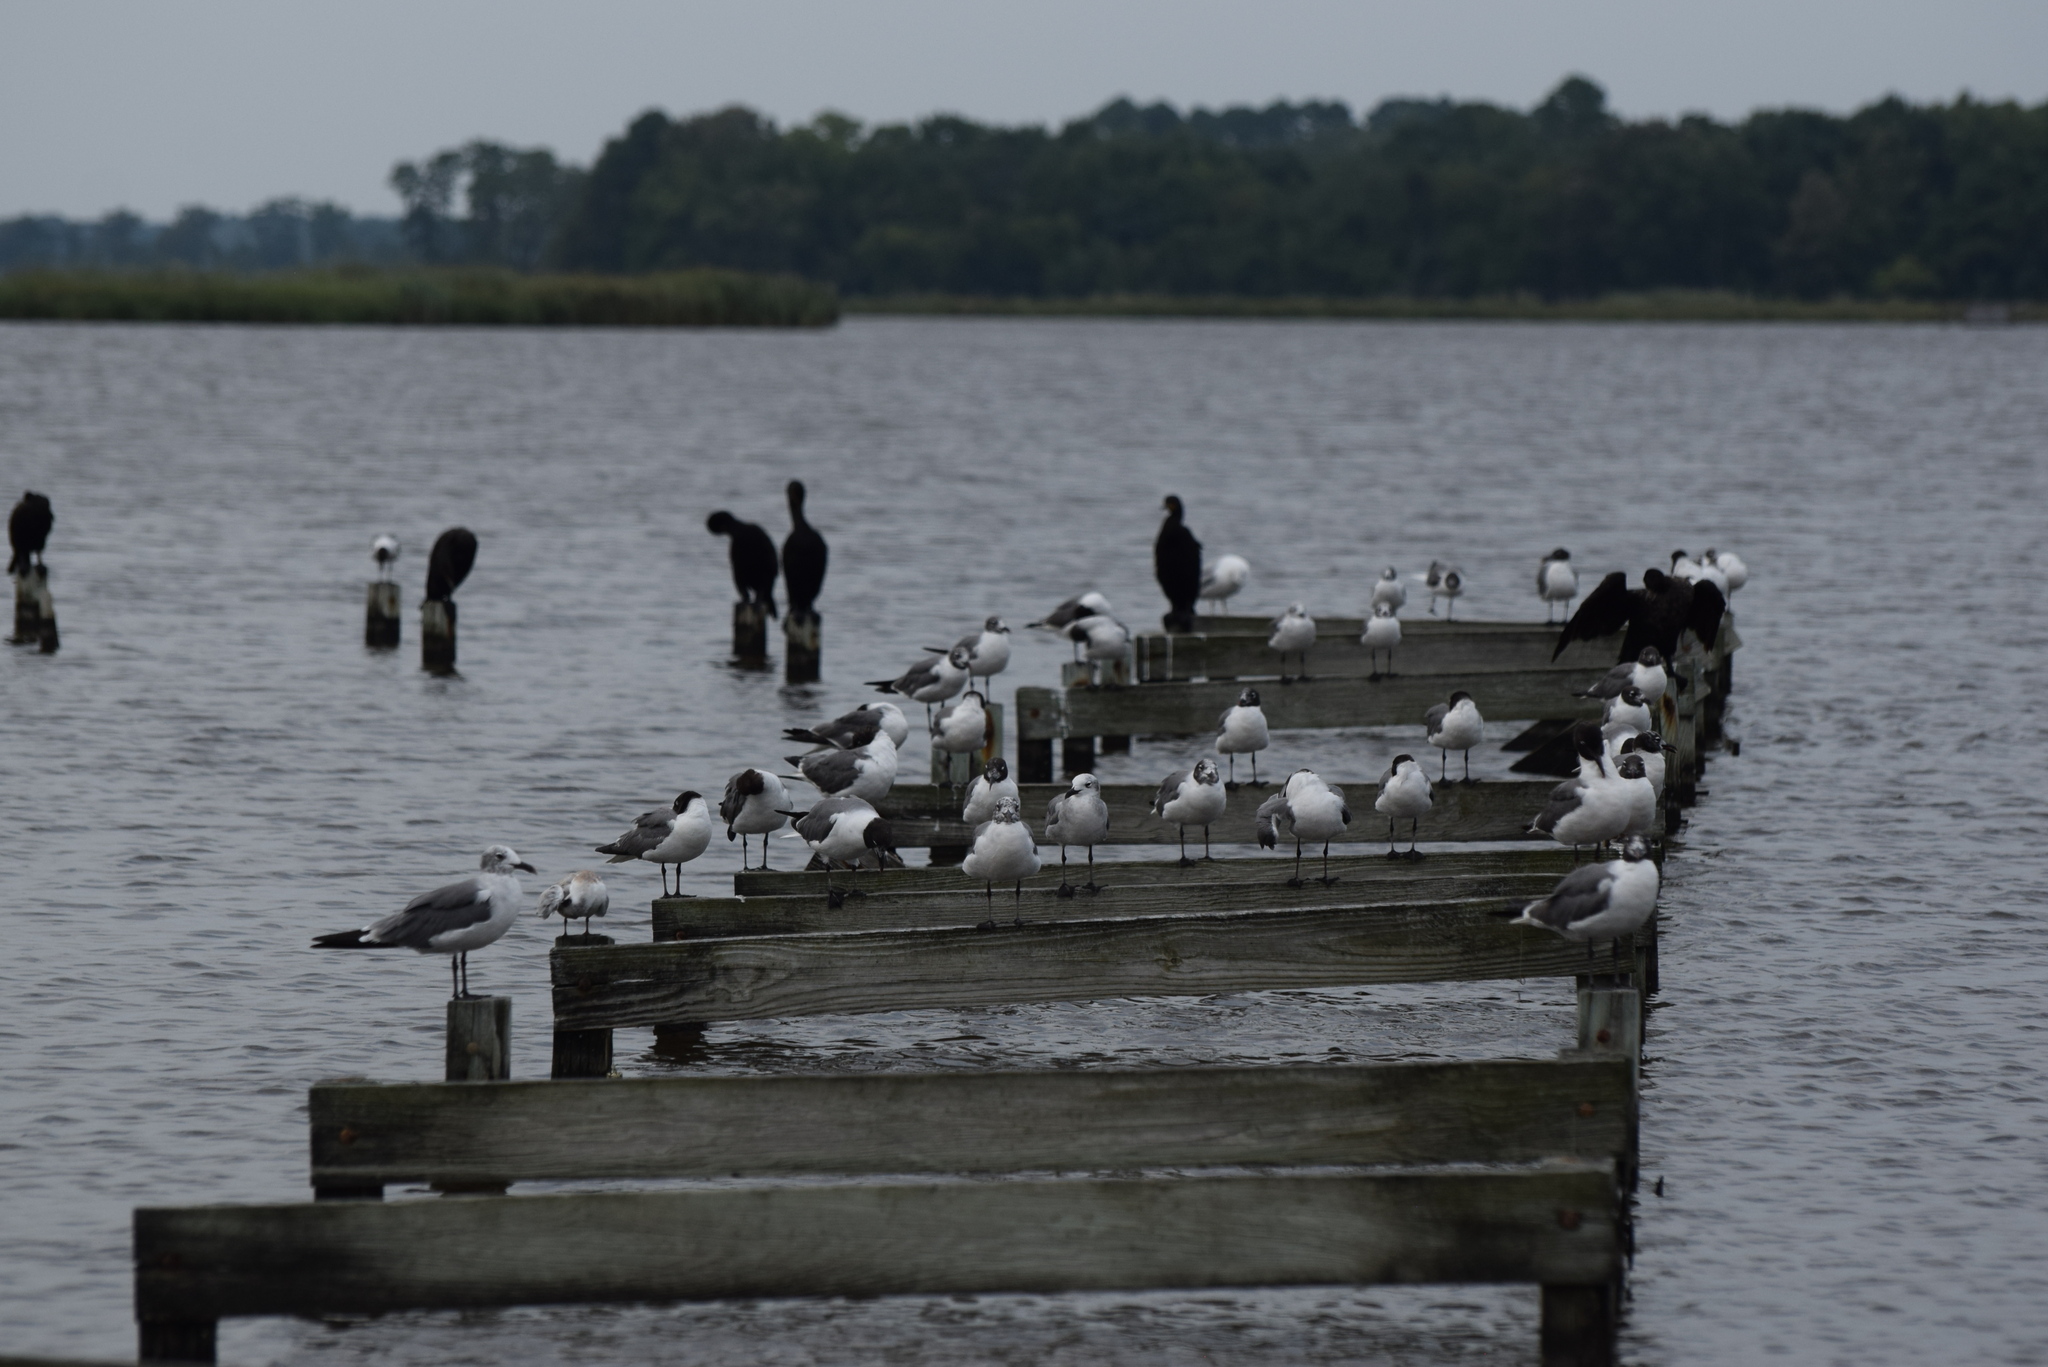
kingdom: Animalia
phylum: Chordata
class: Aves
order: Charadriiformes
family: Laridae
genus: Leucophaeus
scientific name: Leucophaeus atricilla
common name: Laughing gull
